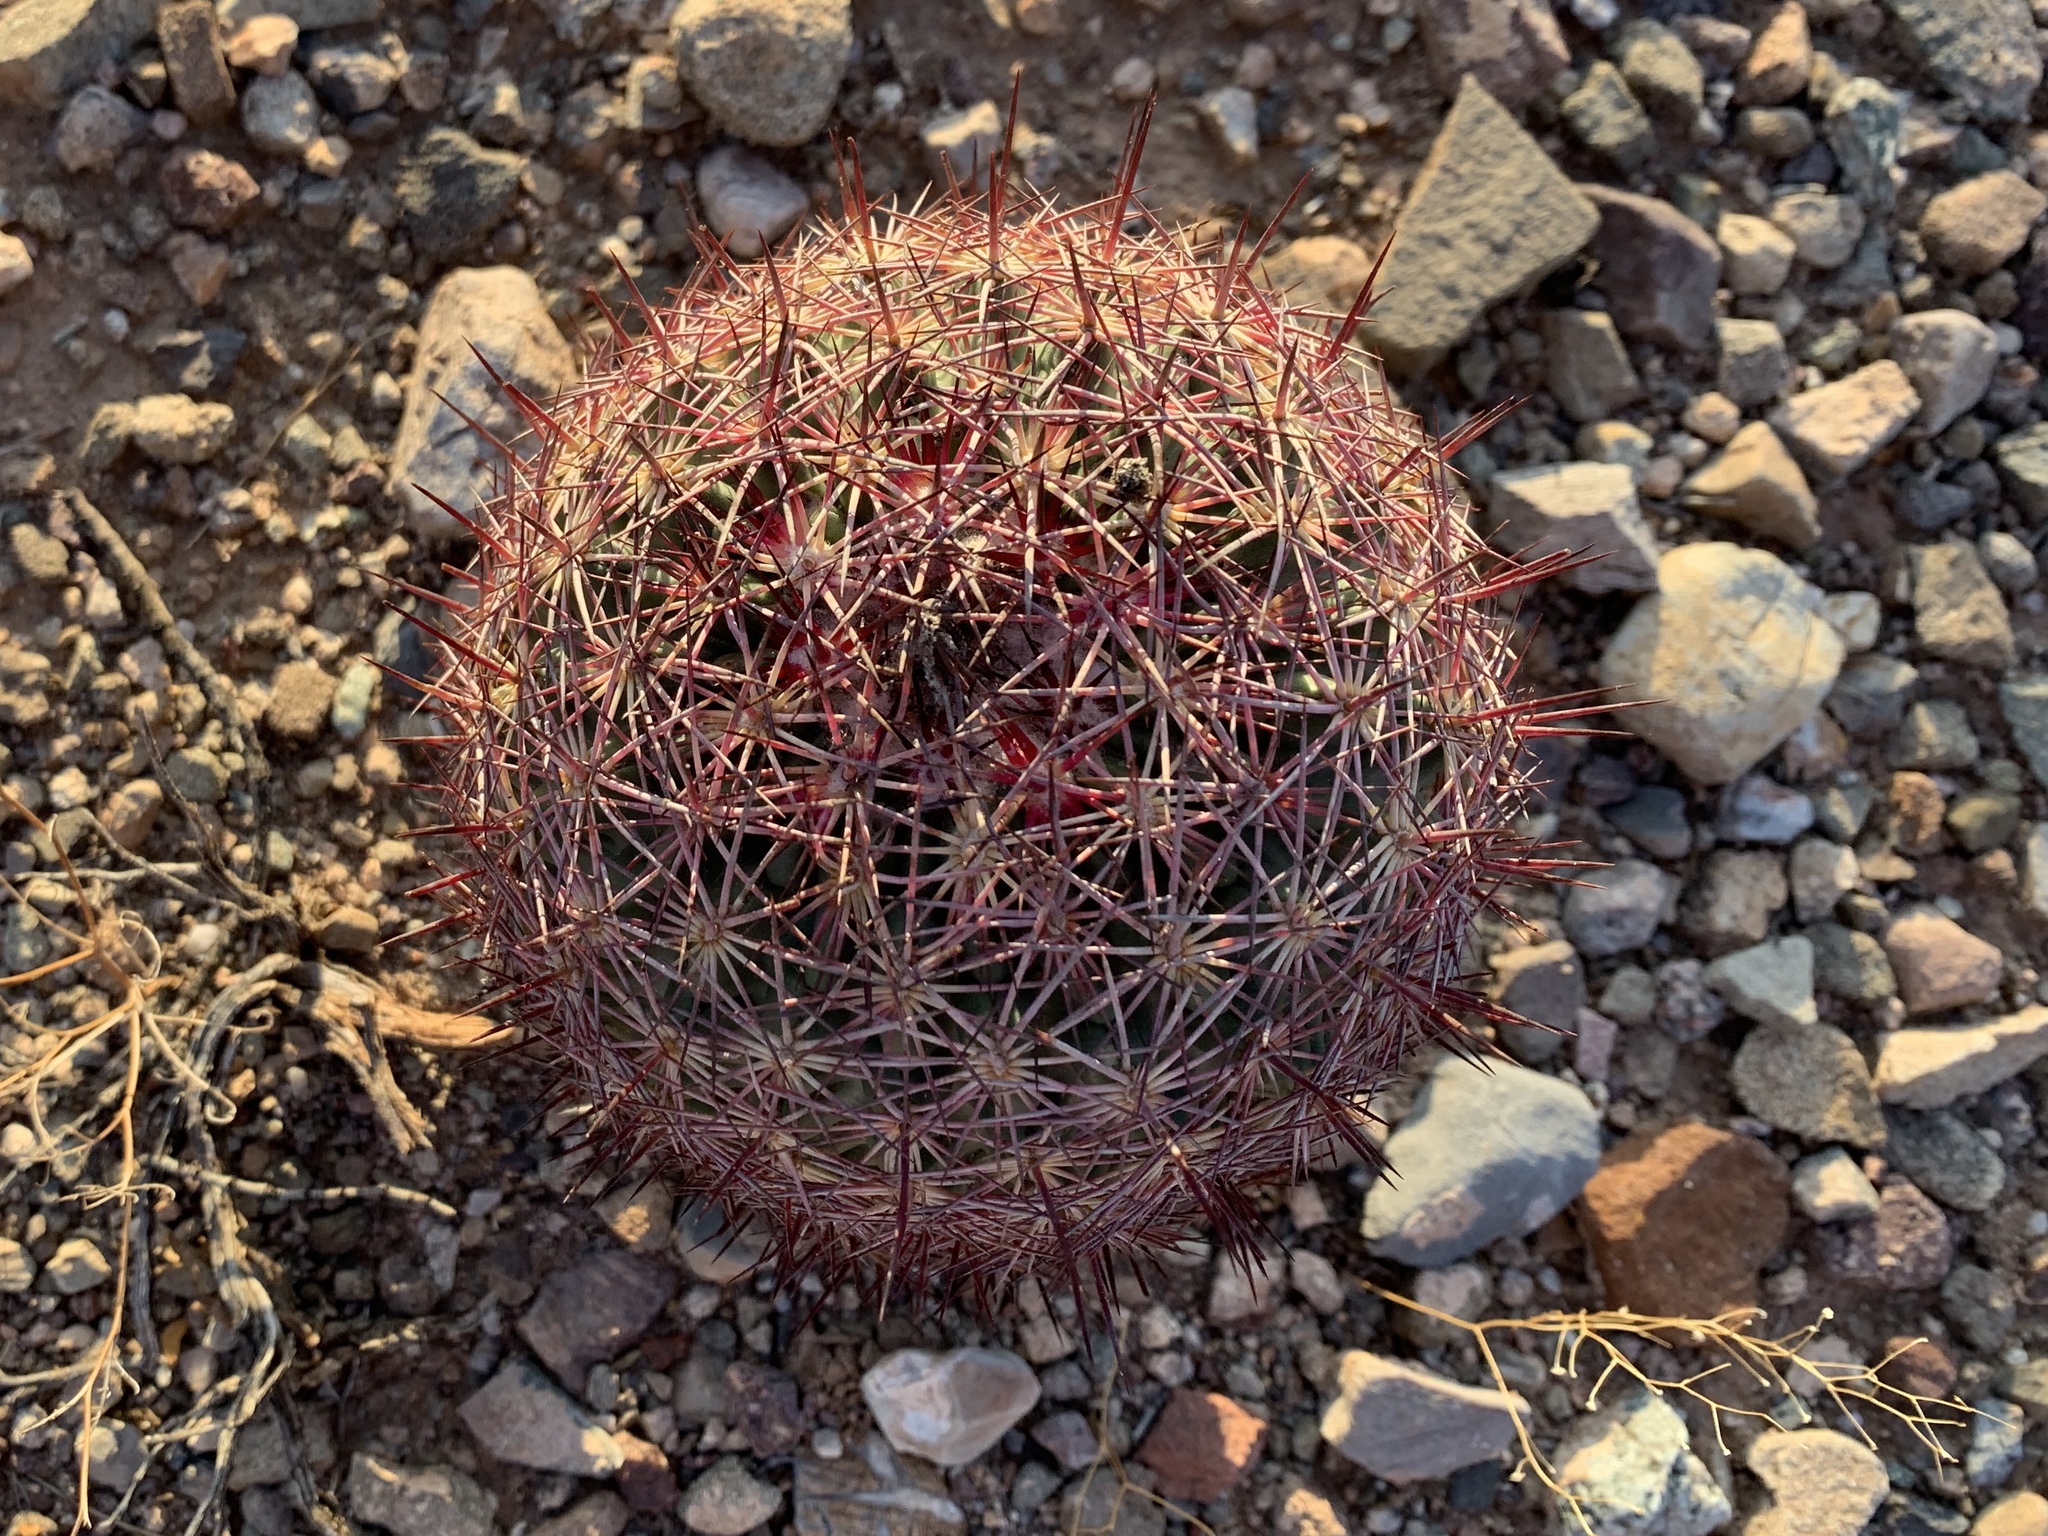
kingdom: Plantae
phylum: Tracheophyta
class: Magnoliopsida
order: Caryophyllales
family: Cactaceae
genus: Sclerocactus
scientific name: Sclerocactus johnsonii
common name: Eight-spine fishhook cactus
